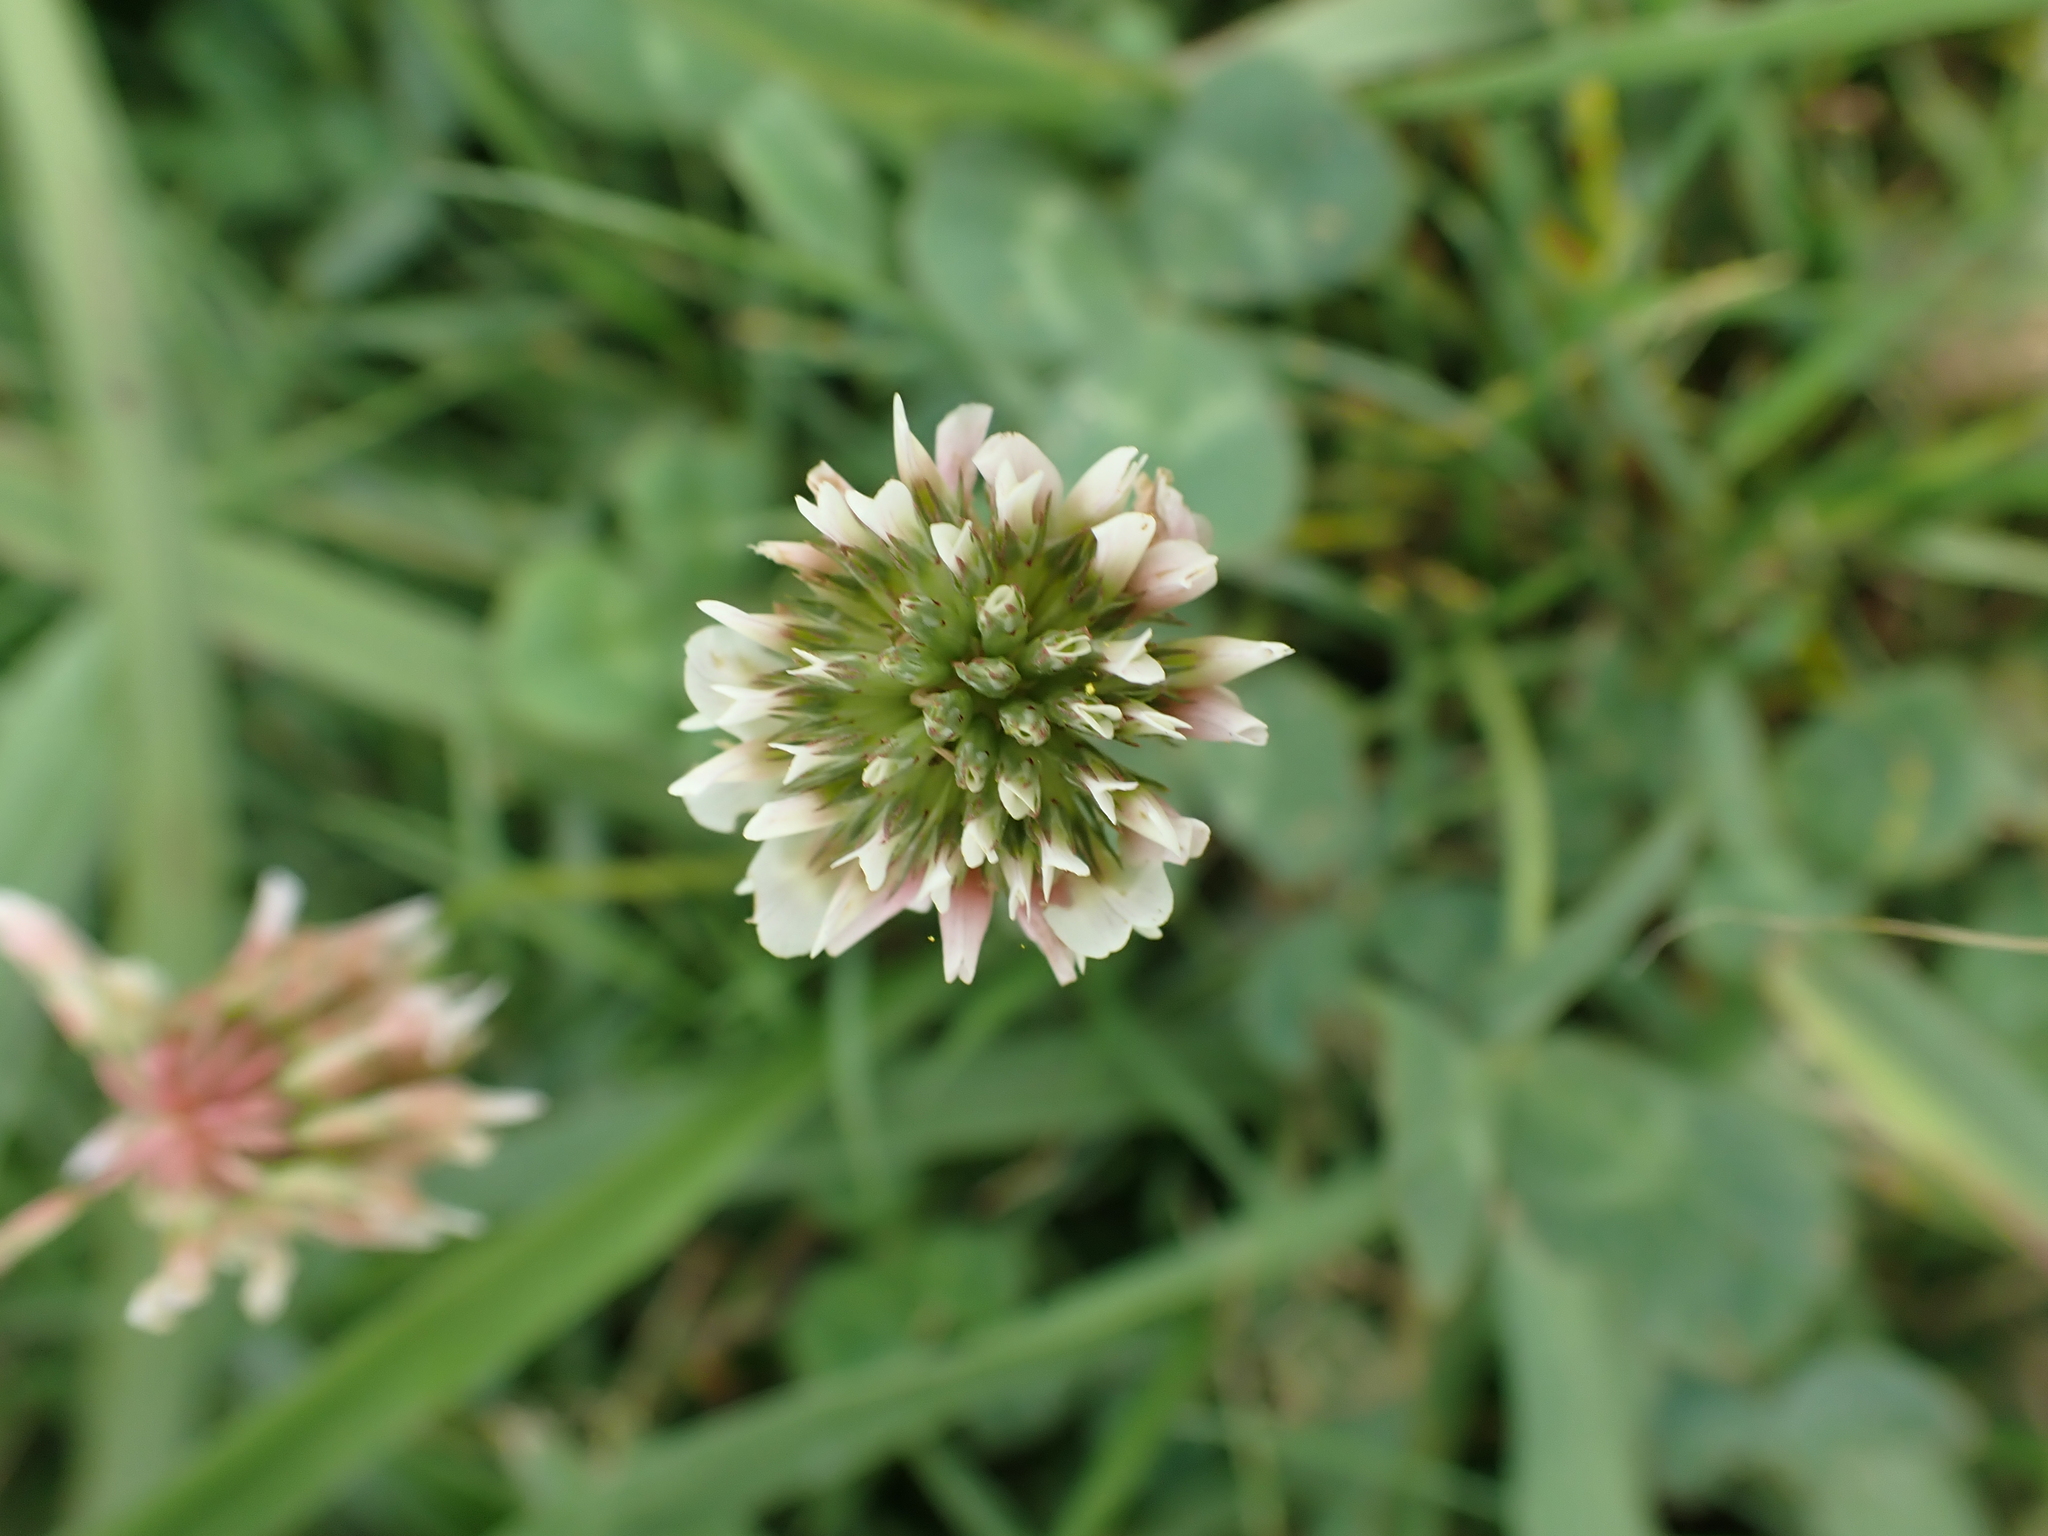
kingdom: Plantae
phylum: Tracheophyta
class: Magnoliopsida
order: Fabales
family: Fabaceae
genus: Trifolium
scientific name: Trifolium repens
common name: White clover
